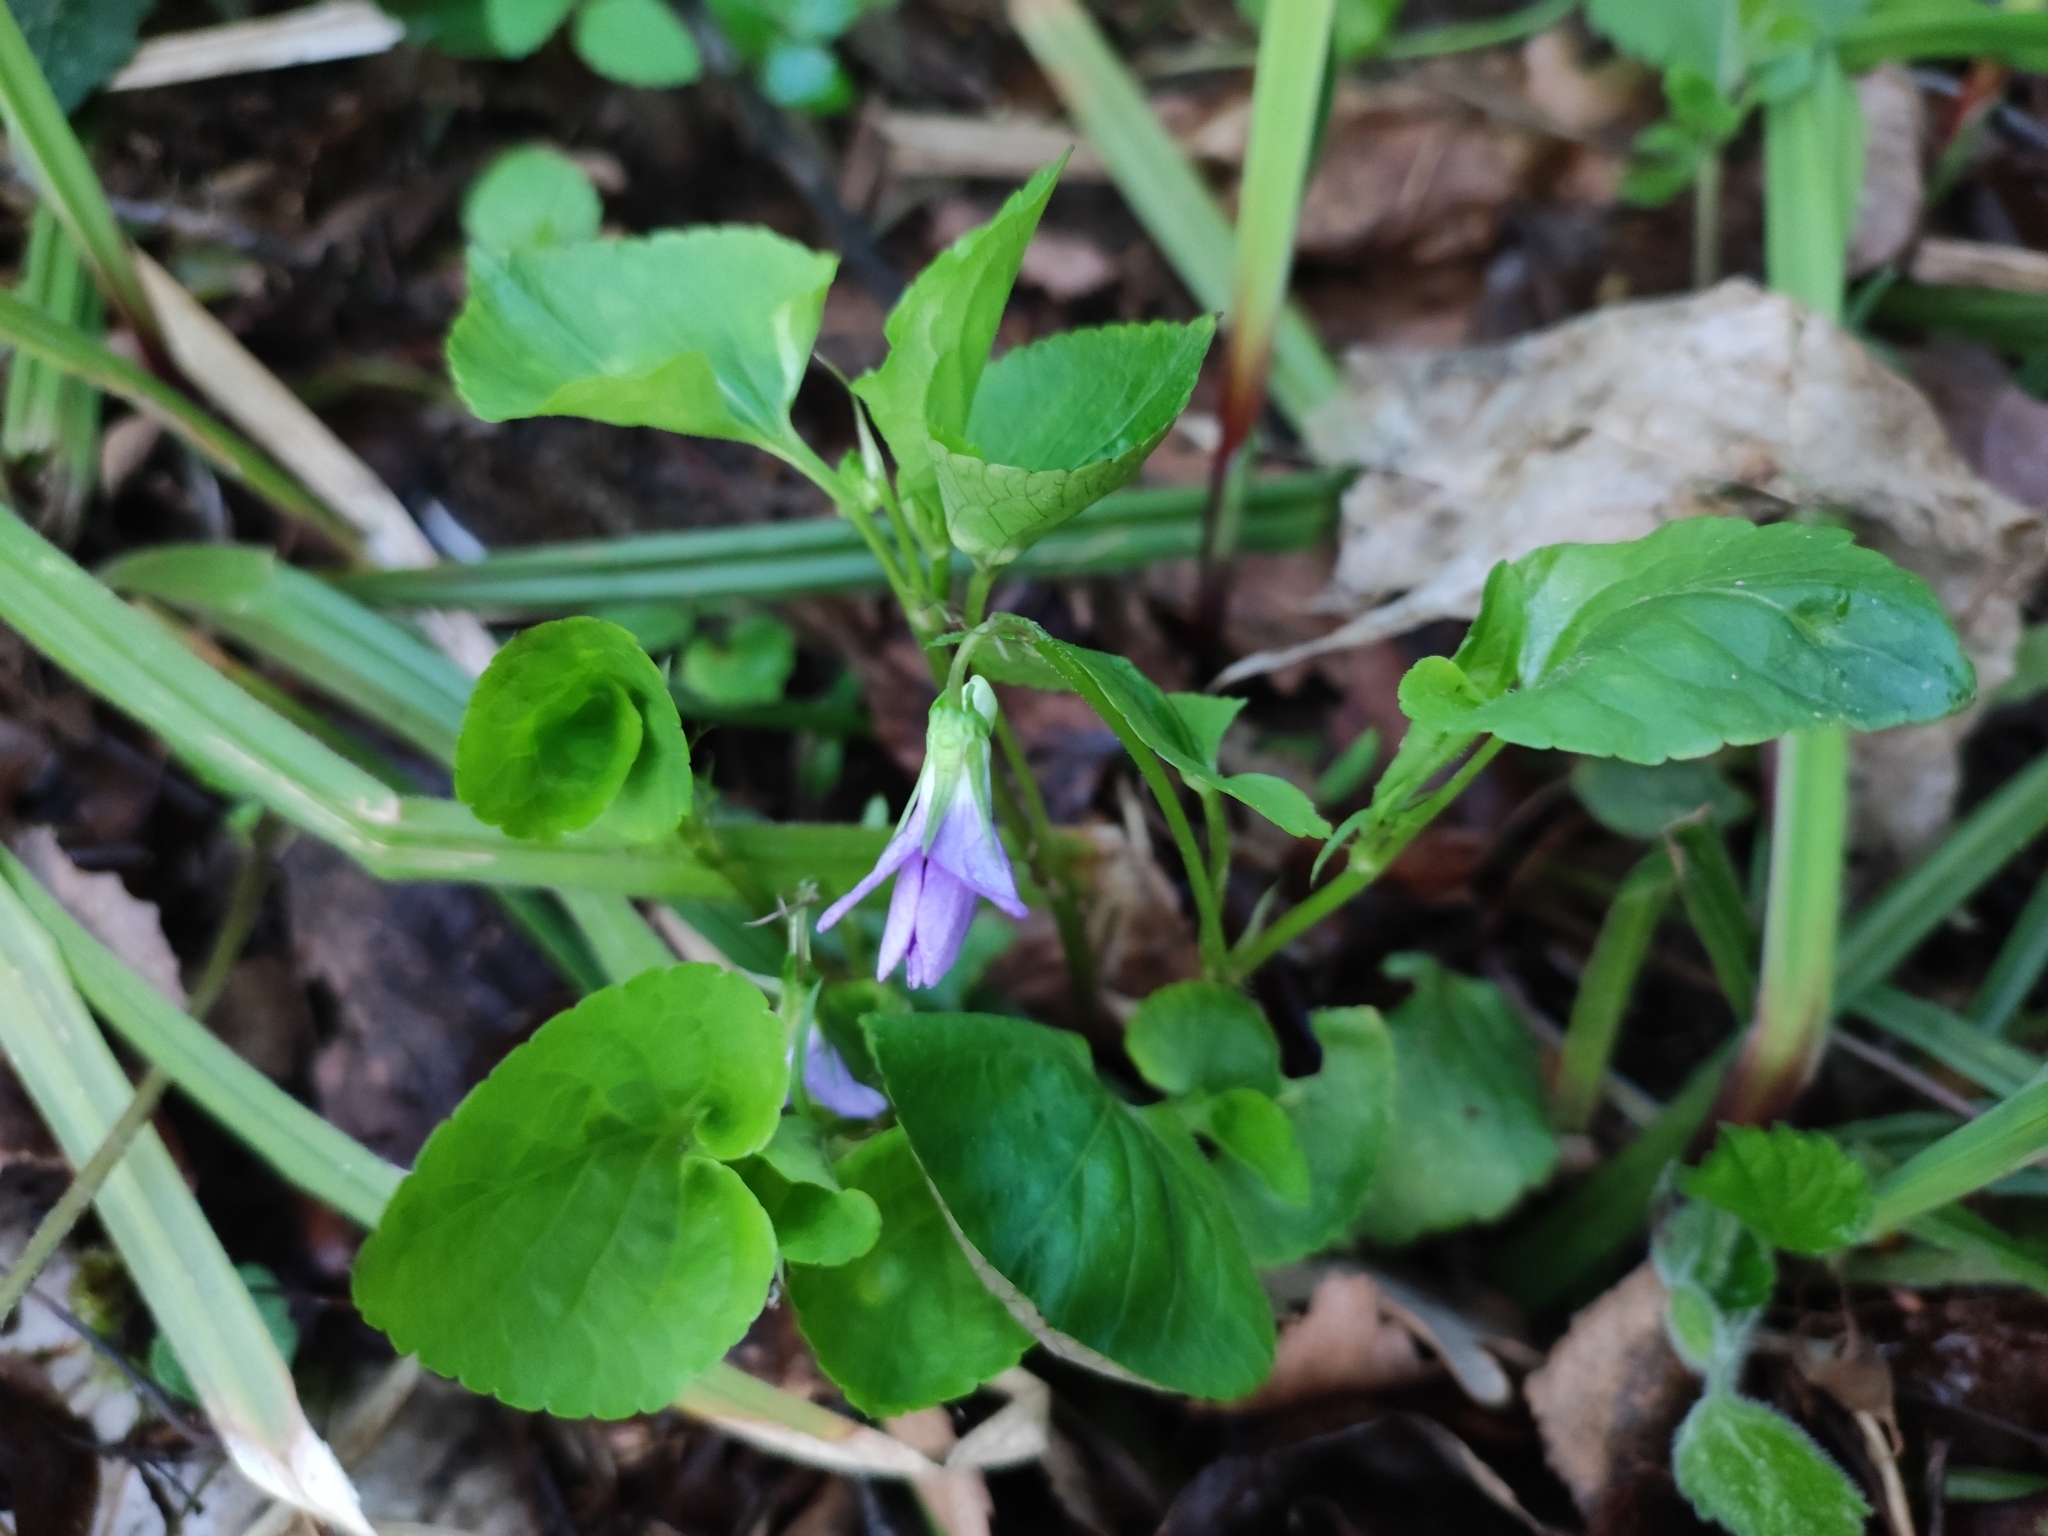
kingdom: Plantae
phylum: Tracheophyta
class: Magnoliopsida
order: Malpighiales
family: Violaceae
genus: Viola
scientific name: Viola riviniana
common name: Common dog-violet
